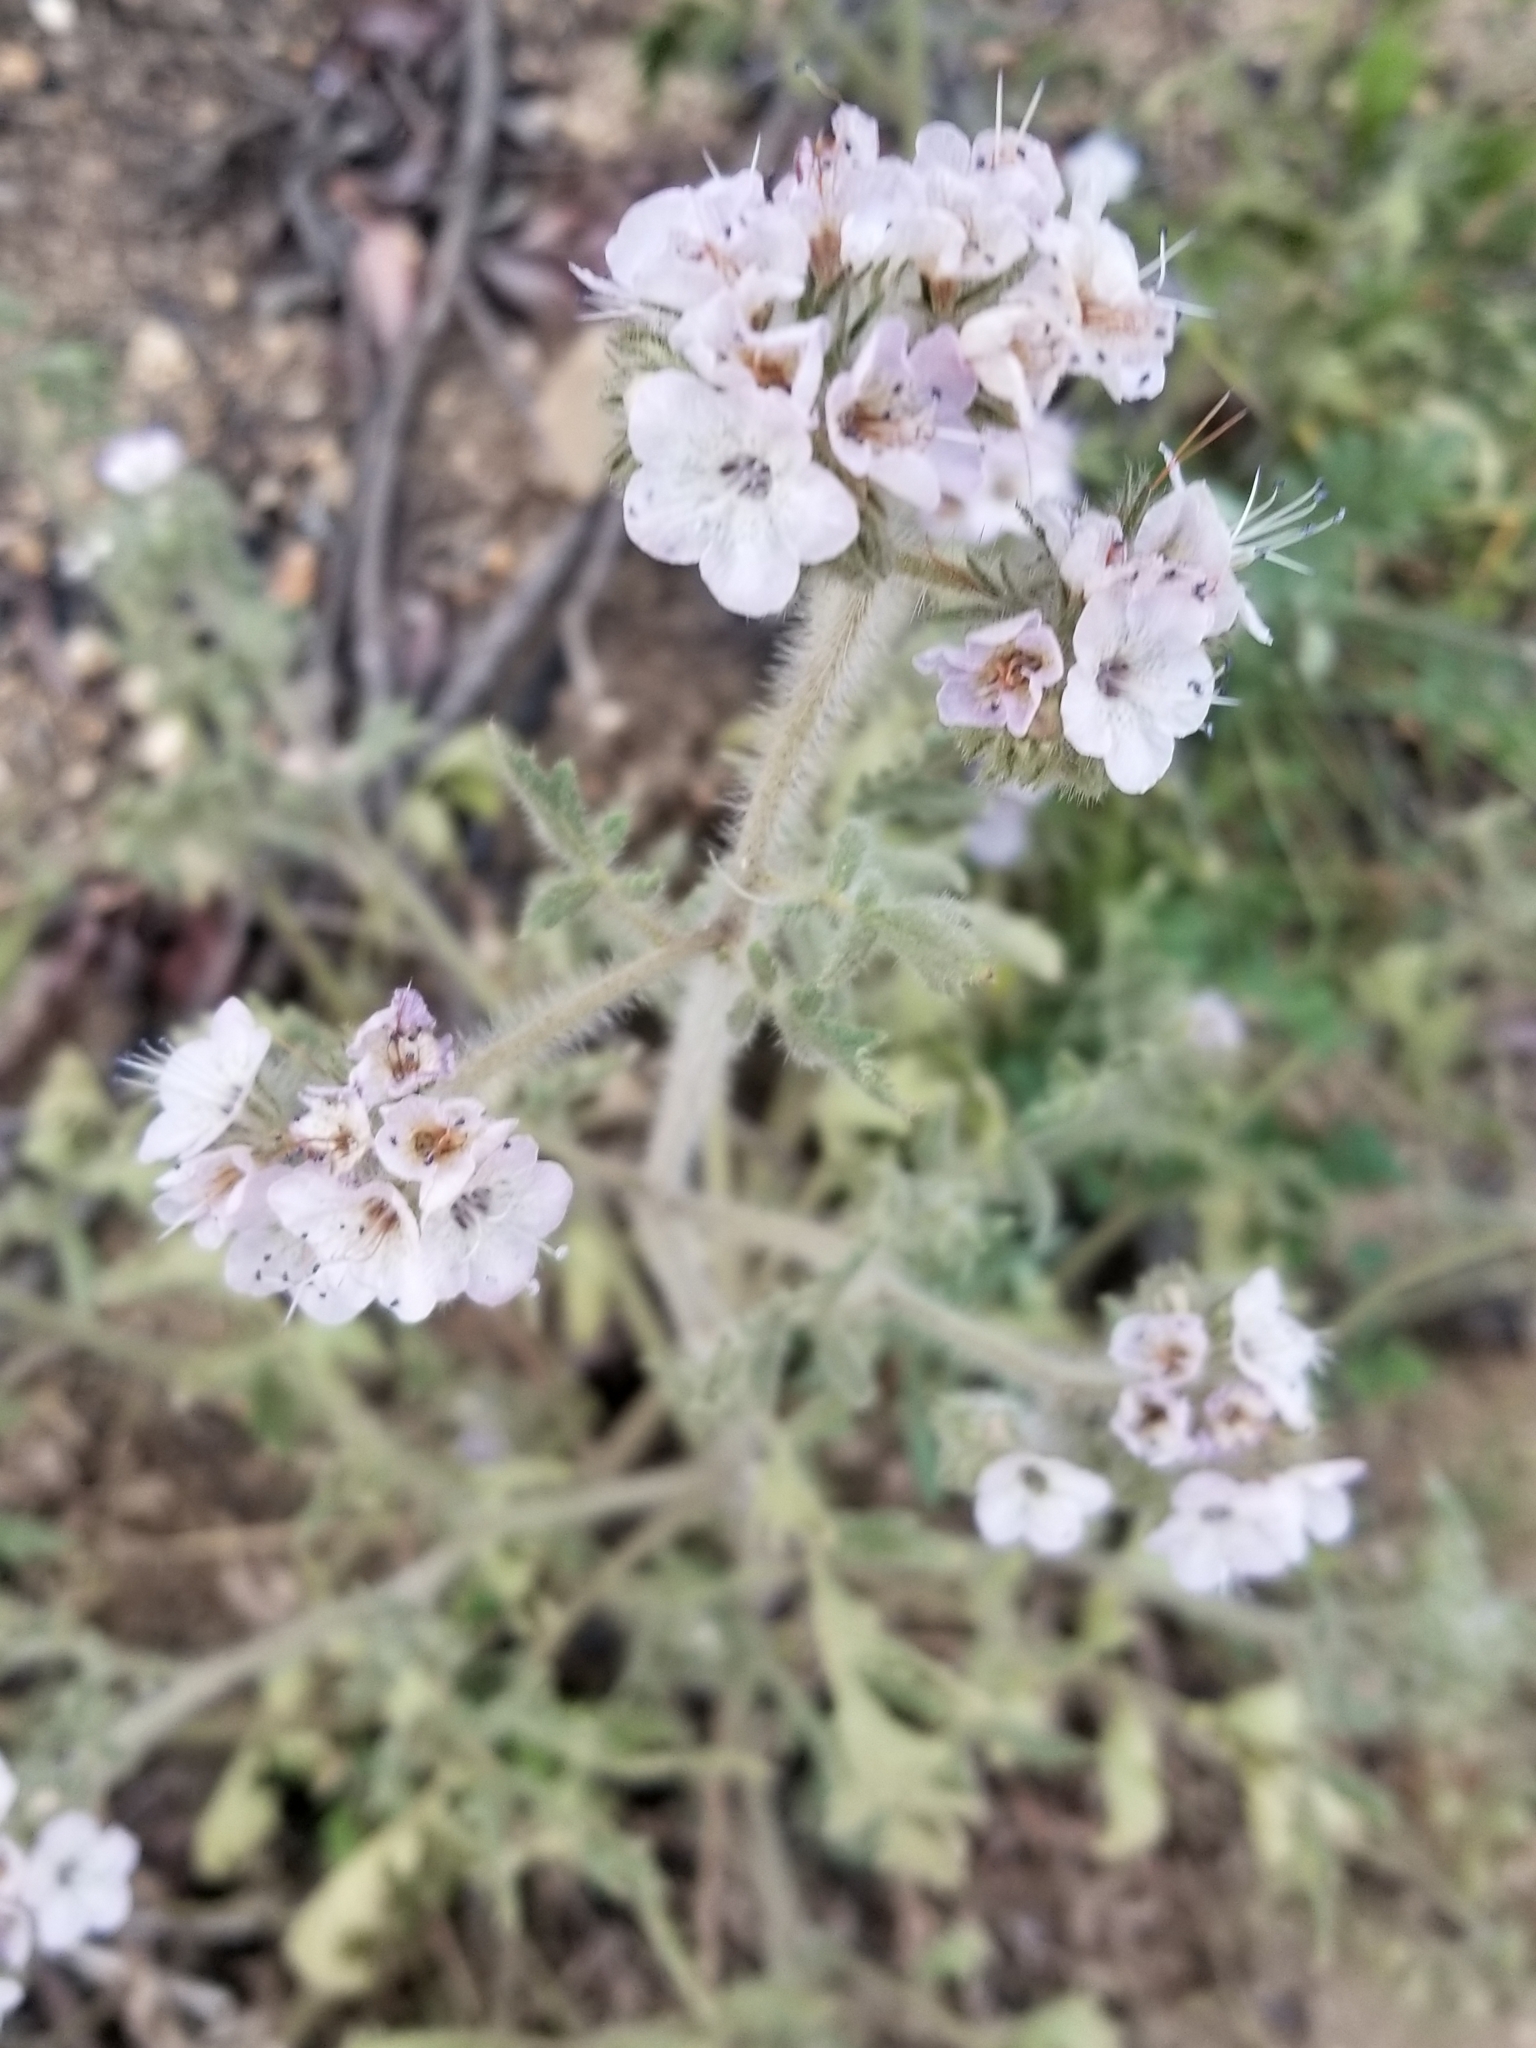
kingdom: Plantae
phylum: Tracheophyta
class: Magnoliopsida
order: Boraginales
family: Hydrophyllaceae
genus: Phacelia
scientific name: Phacelia cicutaria
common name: Caterpillar phacelia
